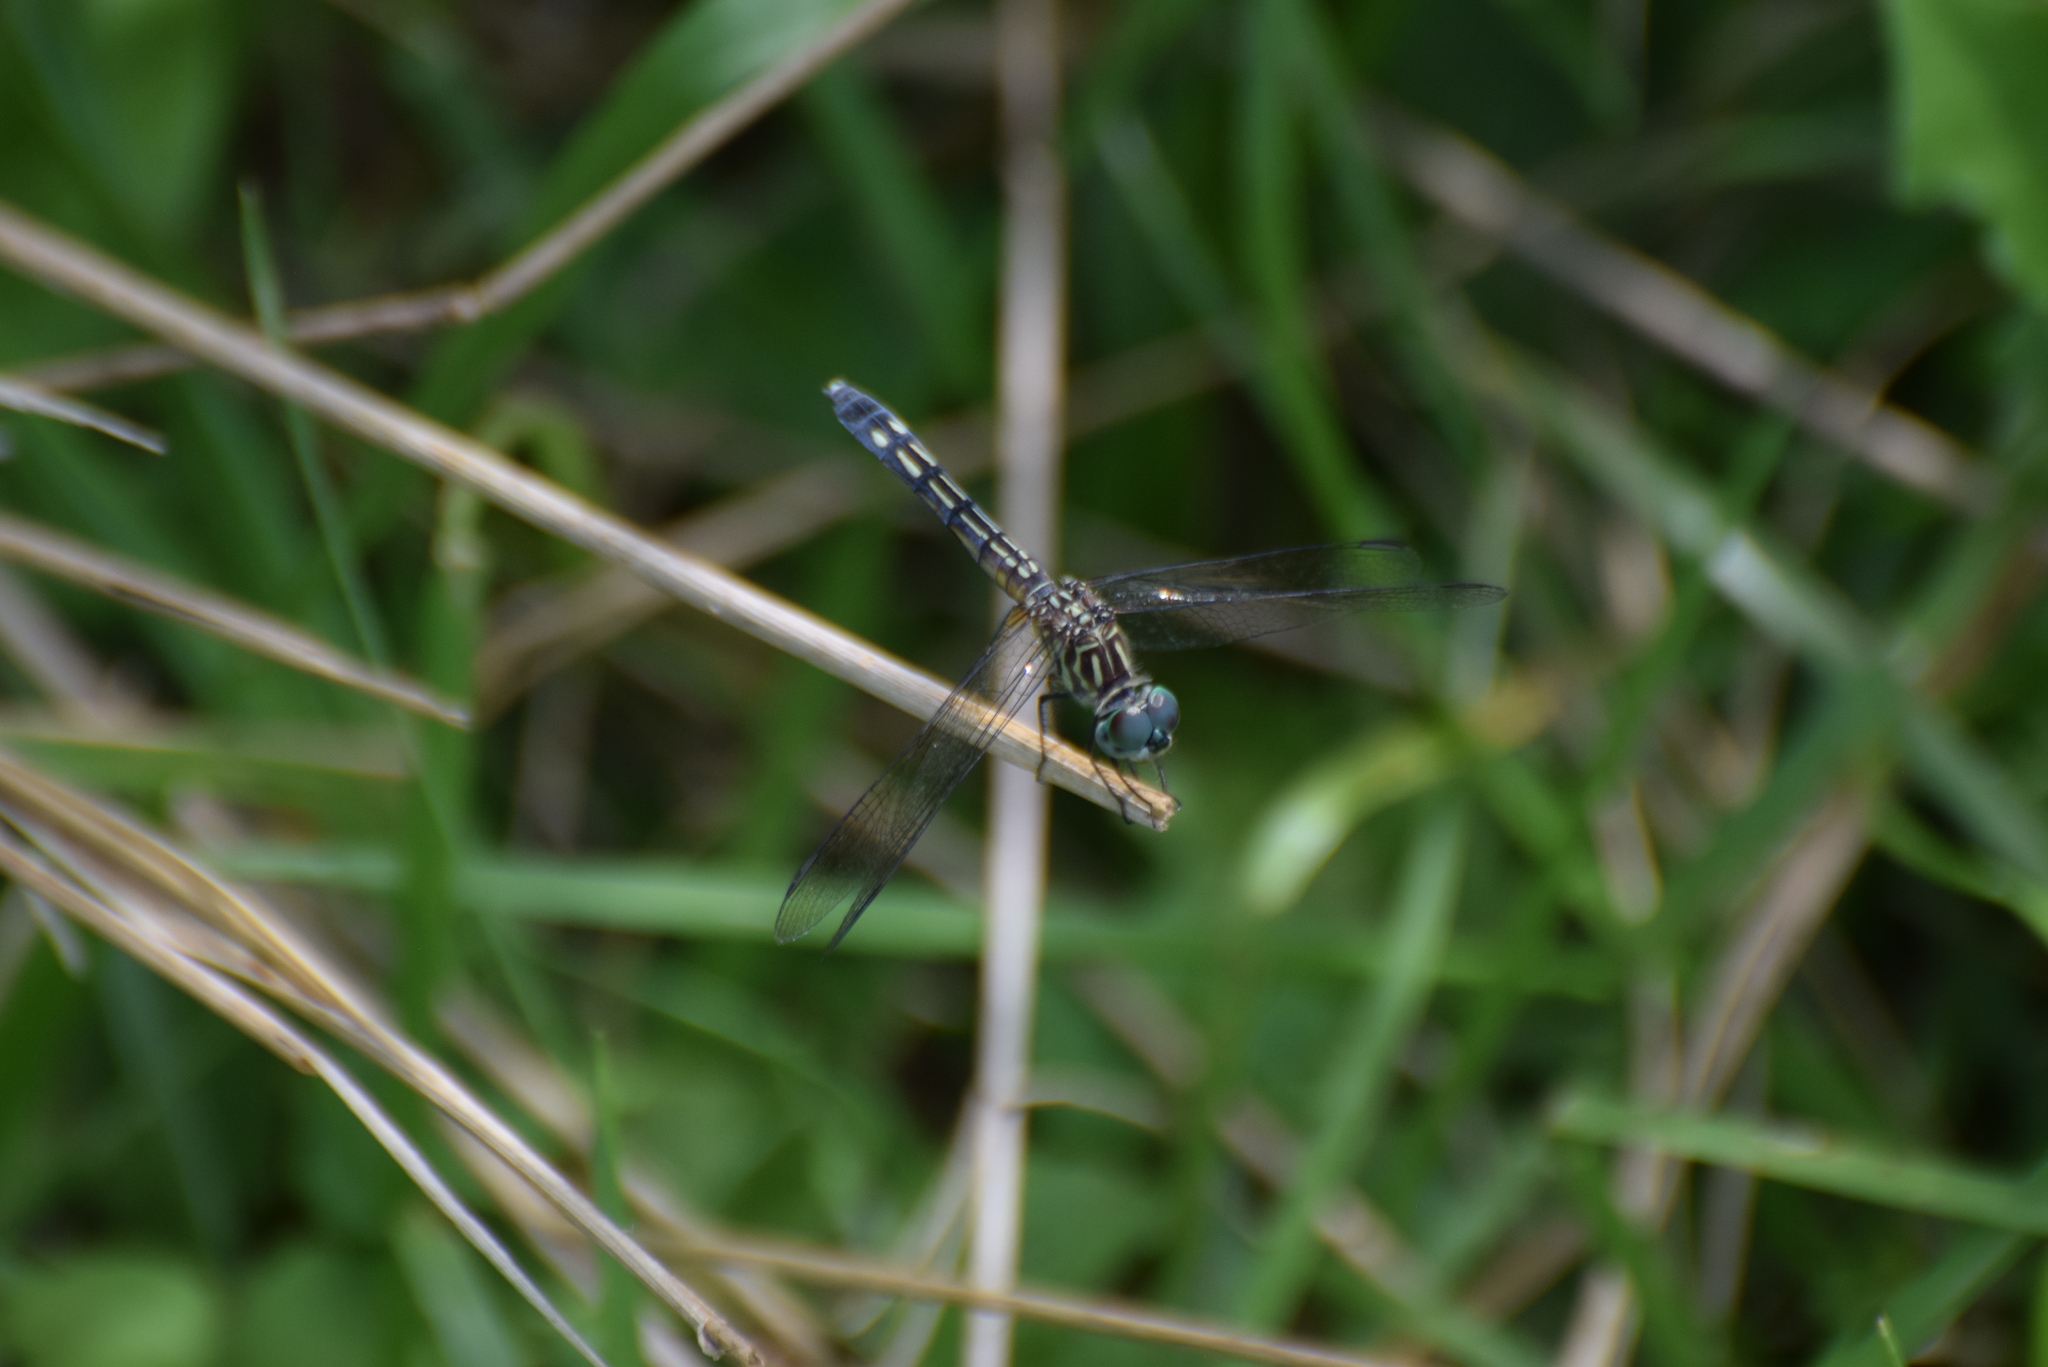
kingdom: Animalia
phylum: Arthropoda
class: Insecta
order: Odonata
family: Libellulidae
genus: Pachydiplax
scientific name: Pachydiplax longipennis
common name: Blue dasher
